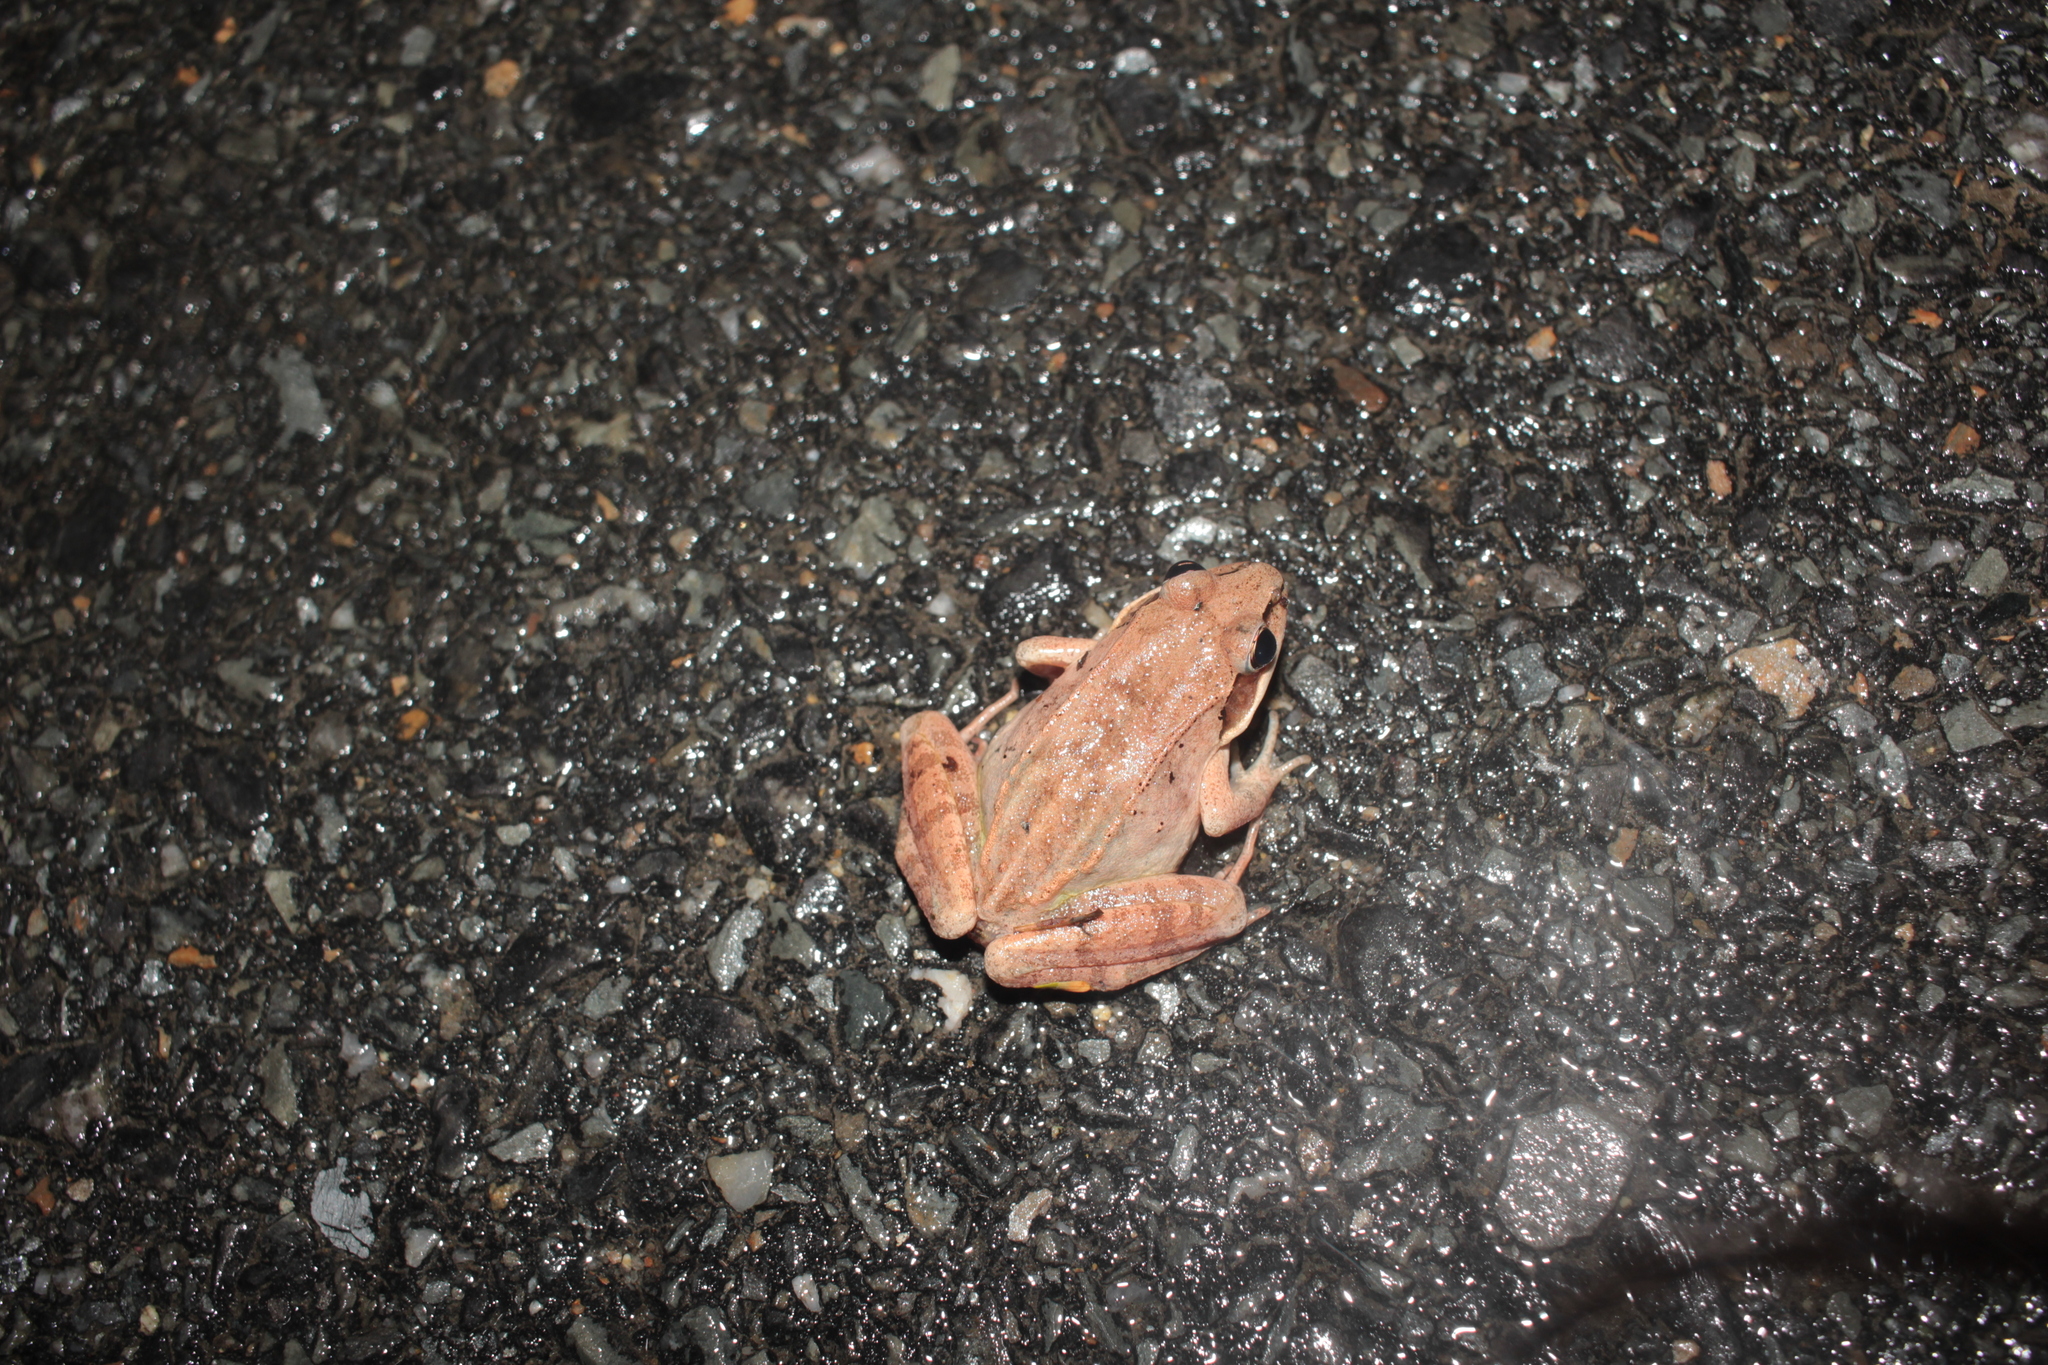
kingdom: Animalia
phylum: Chordata
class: Amphibia
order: Anura
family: Ranidae
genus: Lithobates
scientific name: Lithobates sylvaticus
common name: Wood frog
